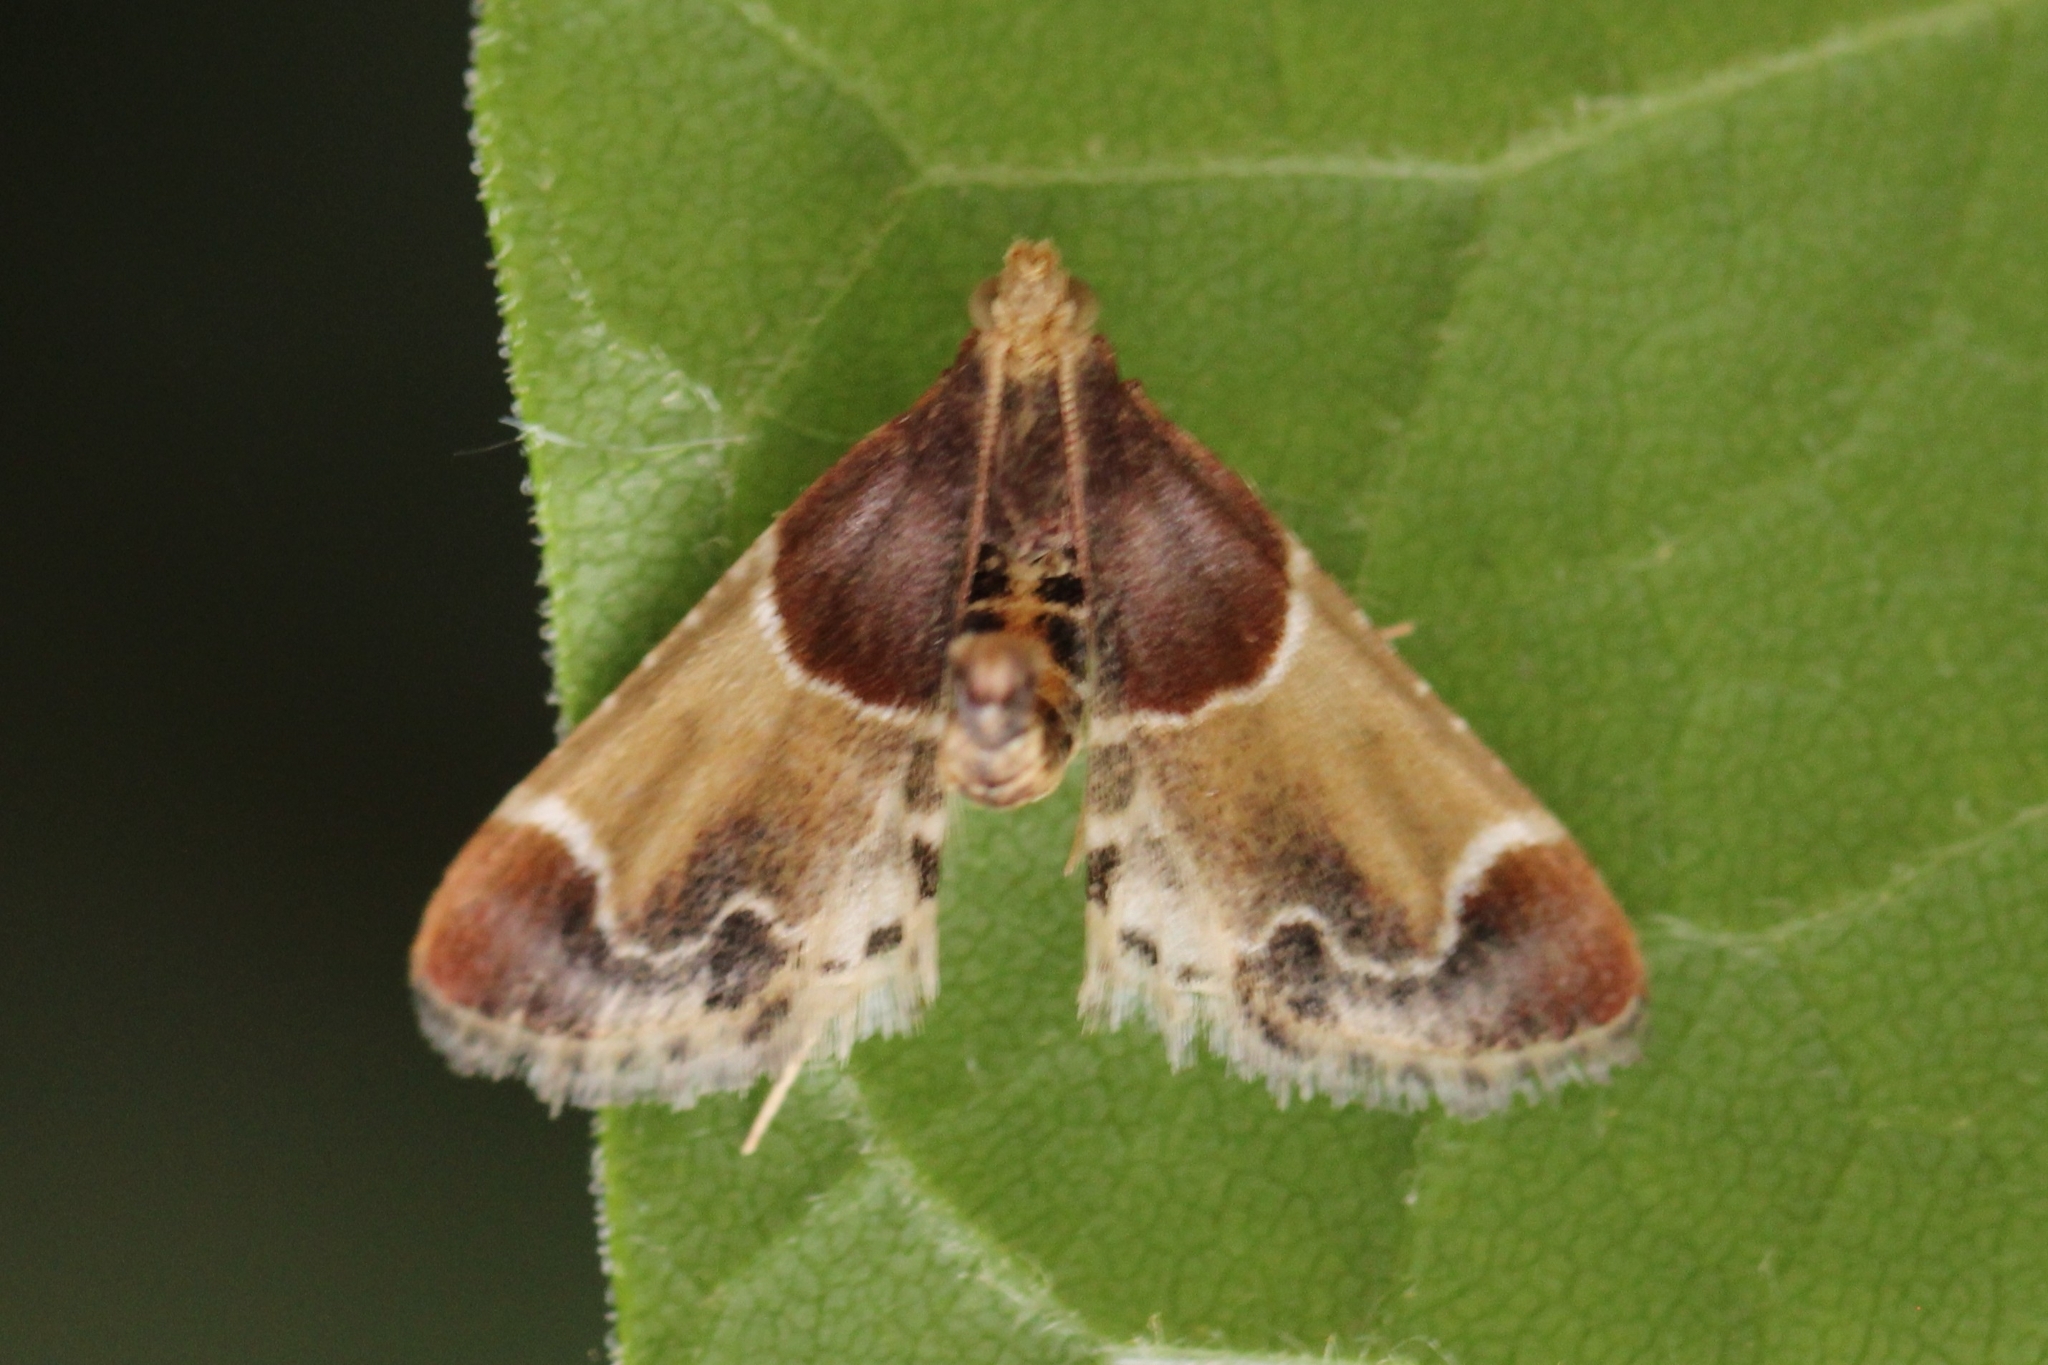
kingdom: Animalia
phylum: Arthropoda
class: Insecta
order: Lepidoptera
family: Pyralidae
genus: Pyralis
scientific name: Pyralis farinalis
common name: Meal moth
